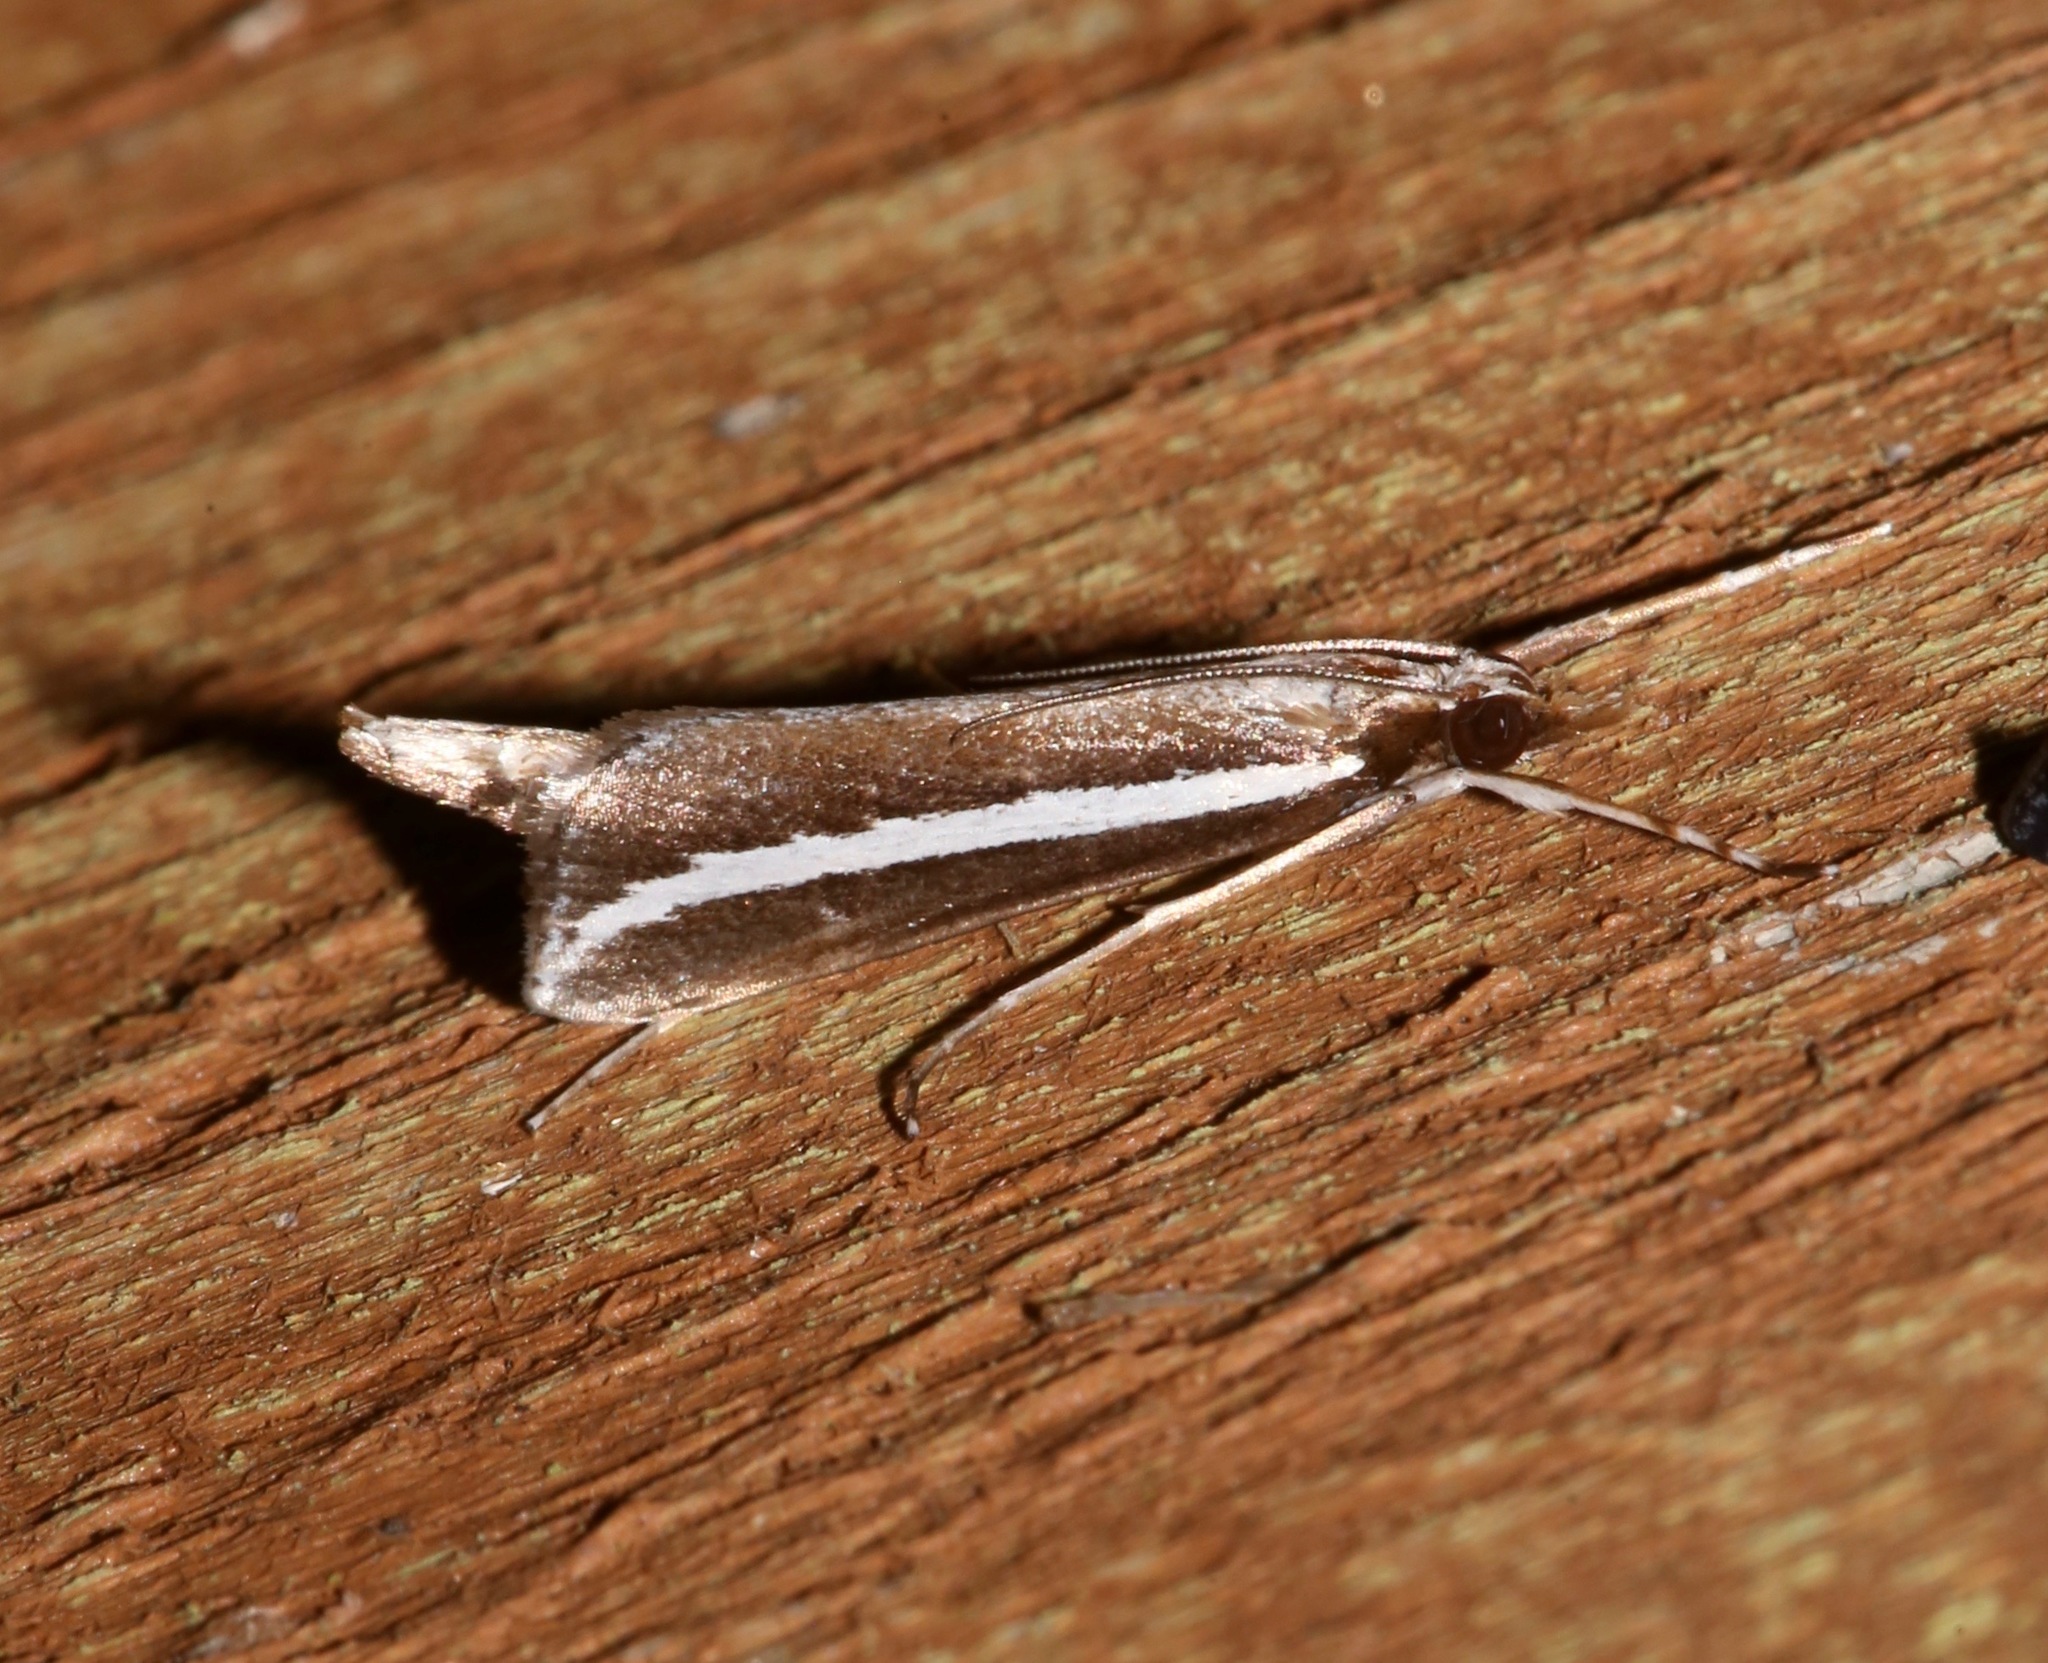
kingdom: Animalia
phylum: Arthropoda
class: Insecta
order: Lepidoptera
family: Crambidae
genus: Carectocultus
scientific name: Carectocultus perstrialis
